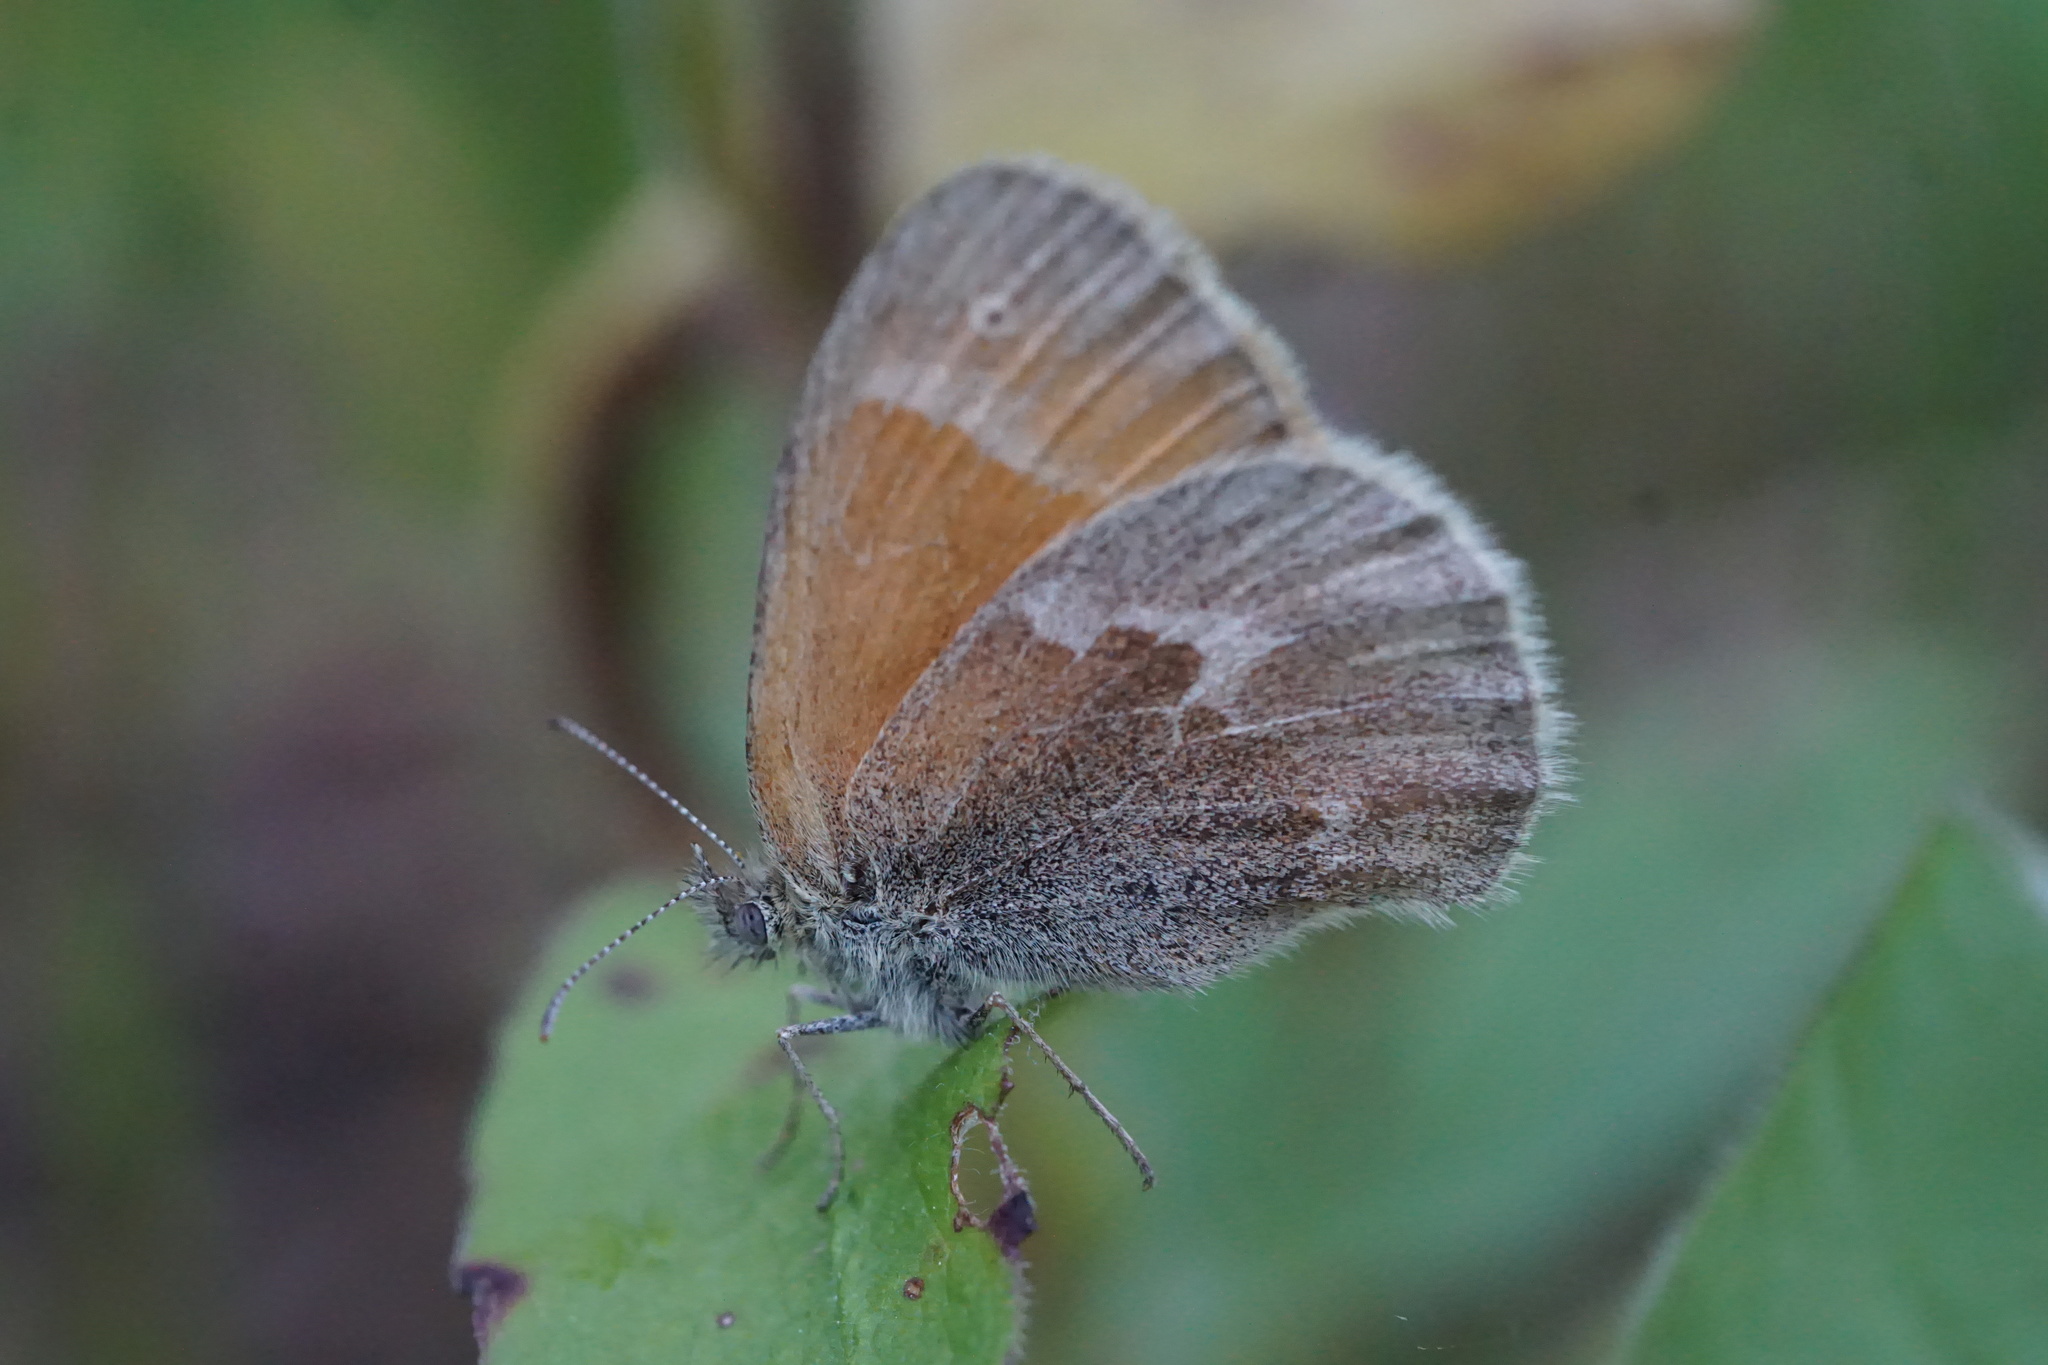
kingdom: Animalia
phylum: Arthropoda
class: Insecta
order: Lepidoptera
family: Nymphalidae
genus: Coenonympha
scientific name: Coenonympha california
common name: Common ringlet
